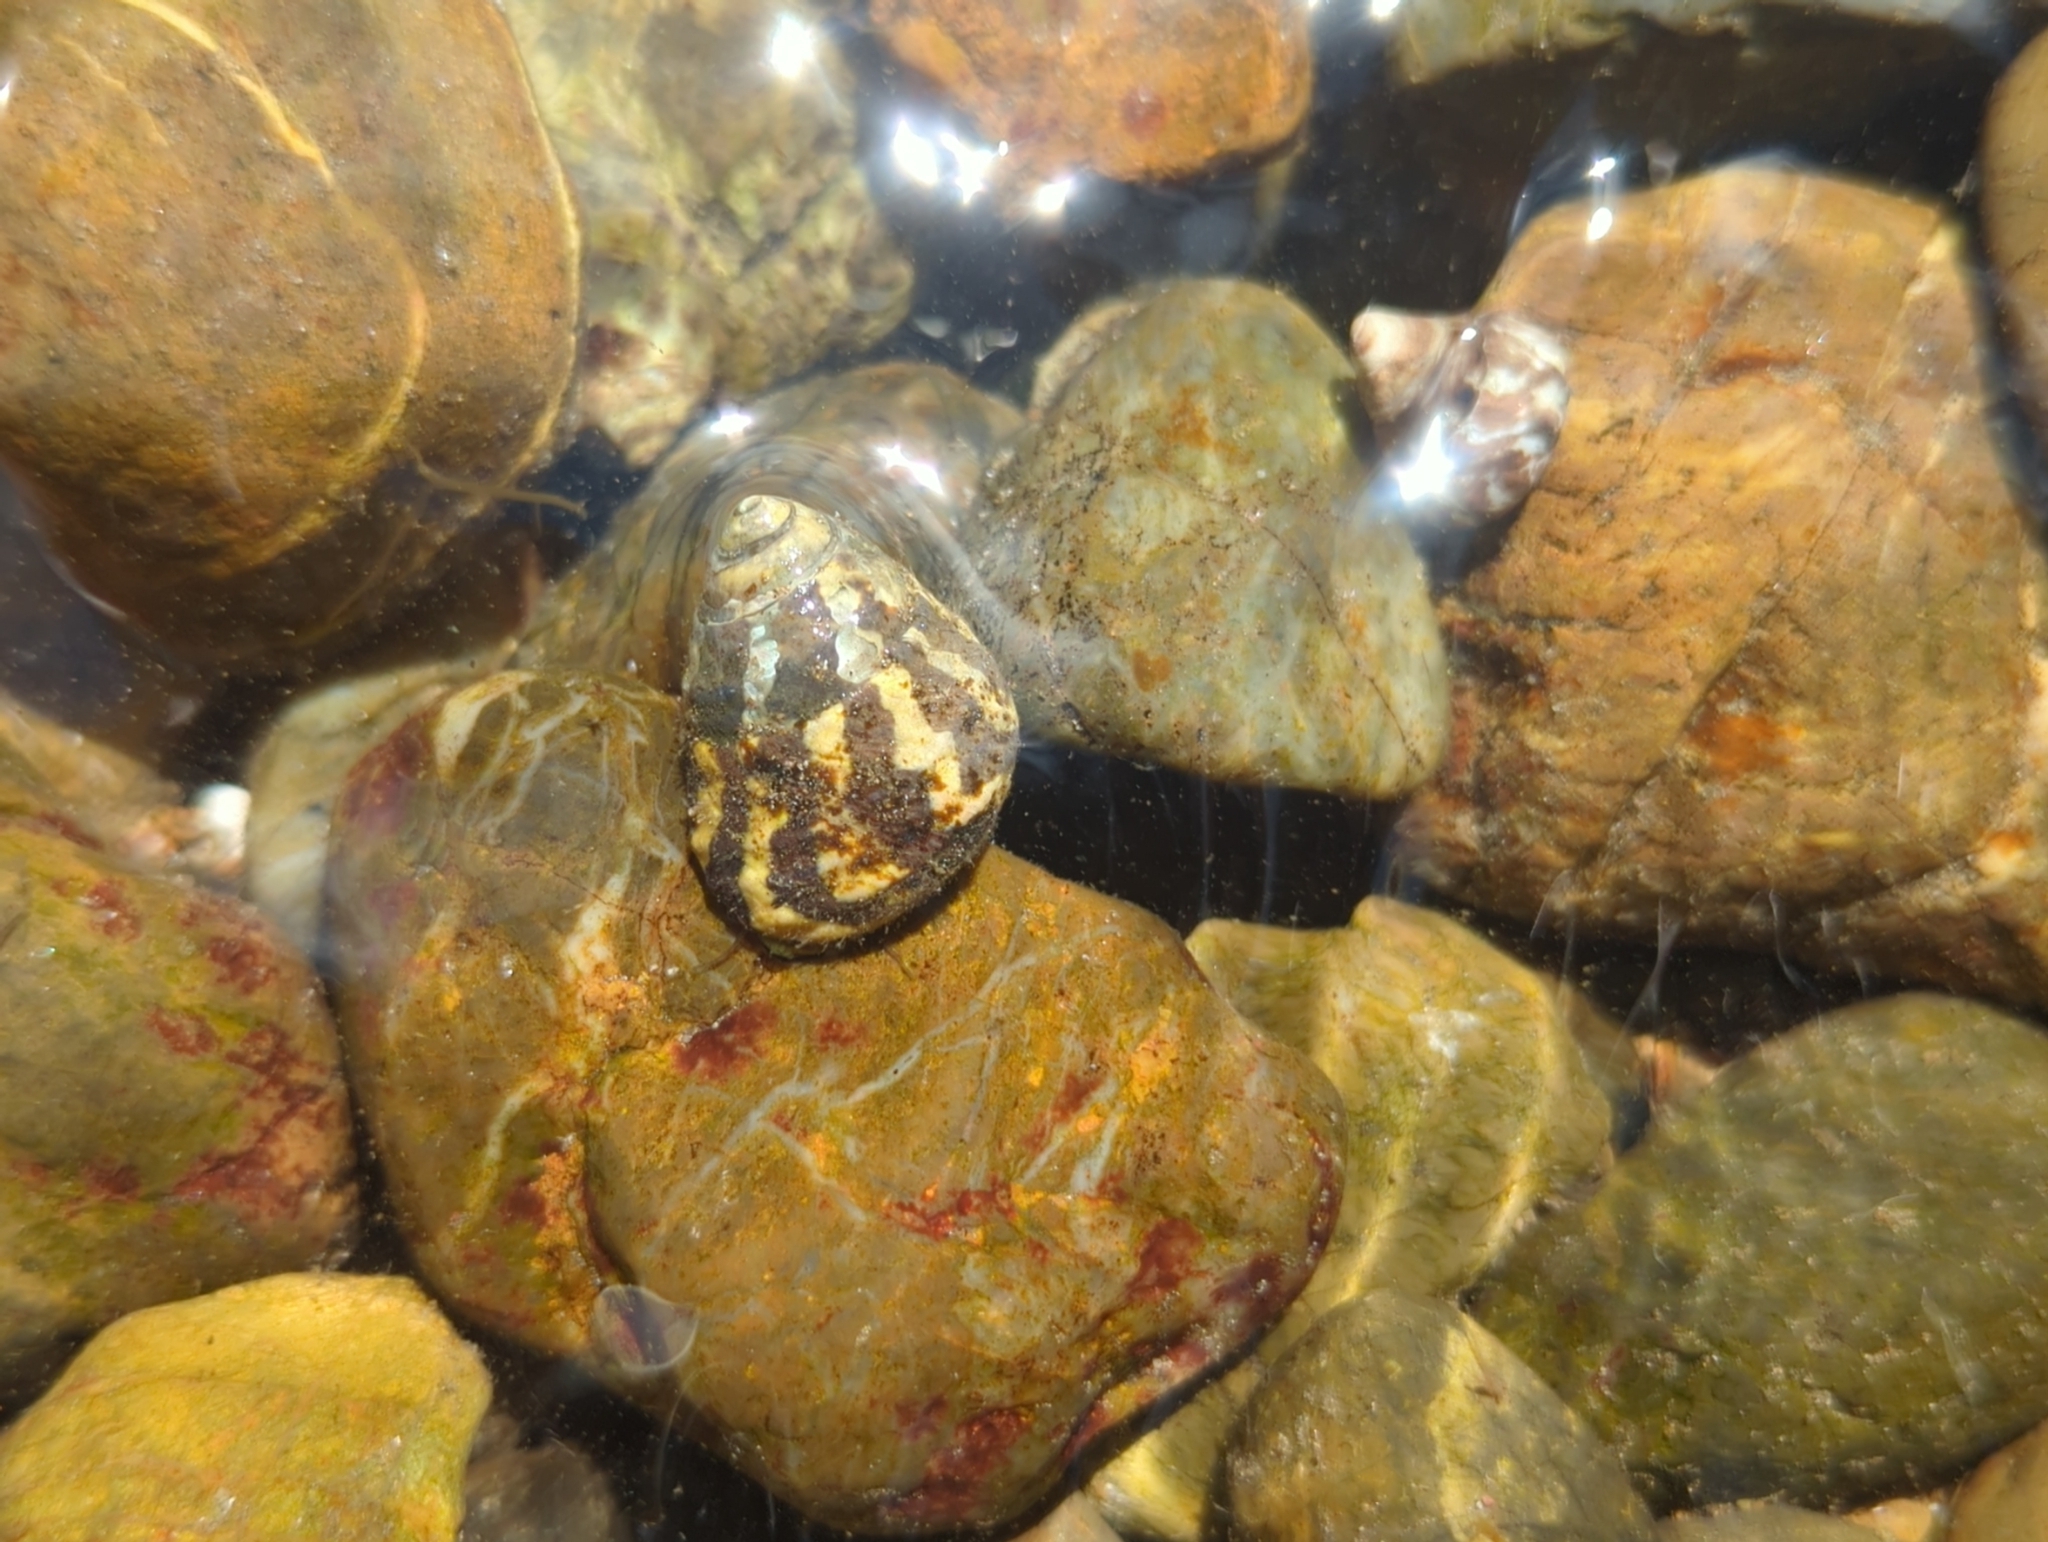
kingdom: Animalia
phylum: Mollusca
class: Gastropoda
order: Trochida
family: Trochidae
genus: Austrocochlea
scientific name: Austrocochlea porcata
